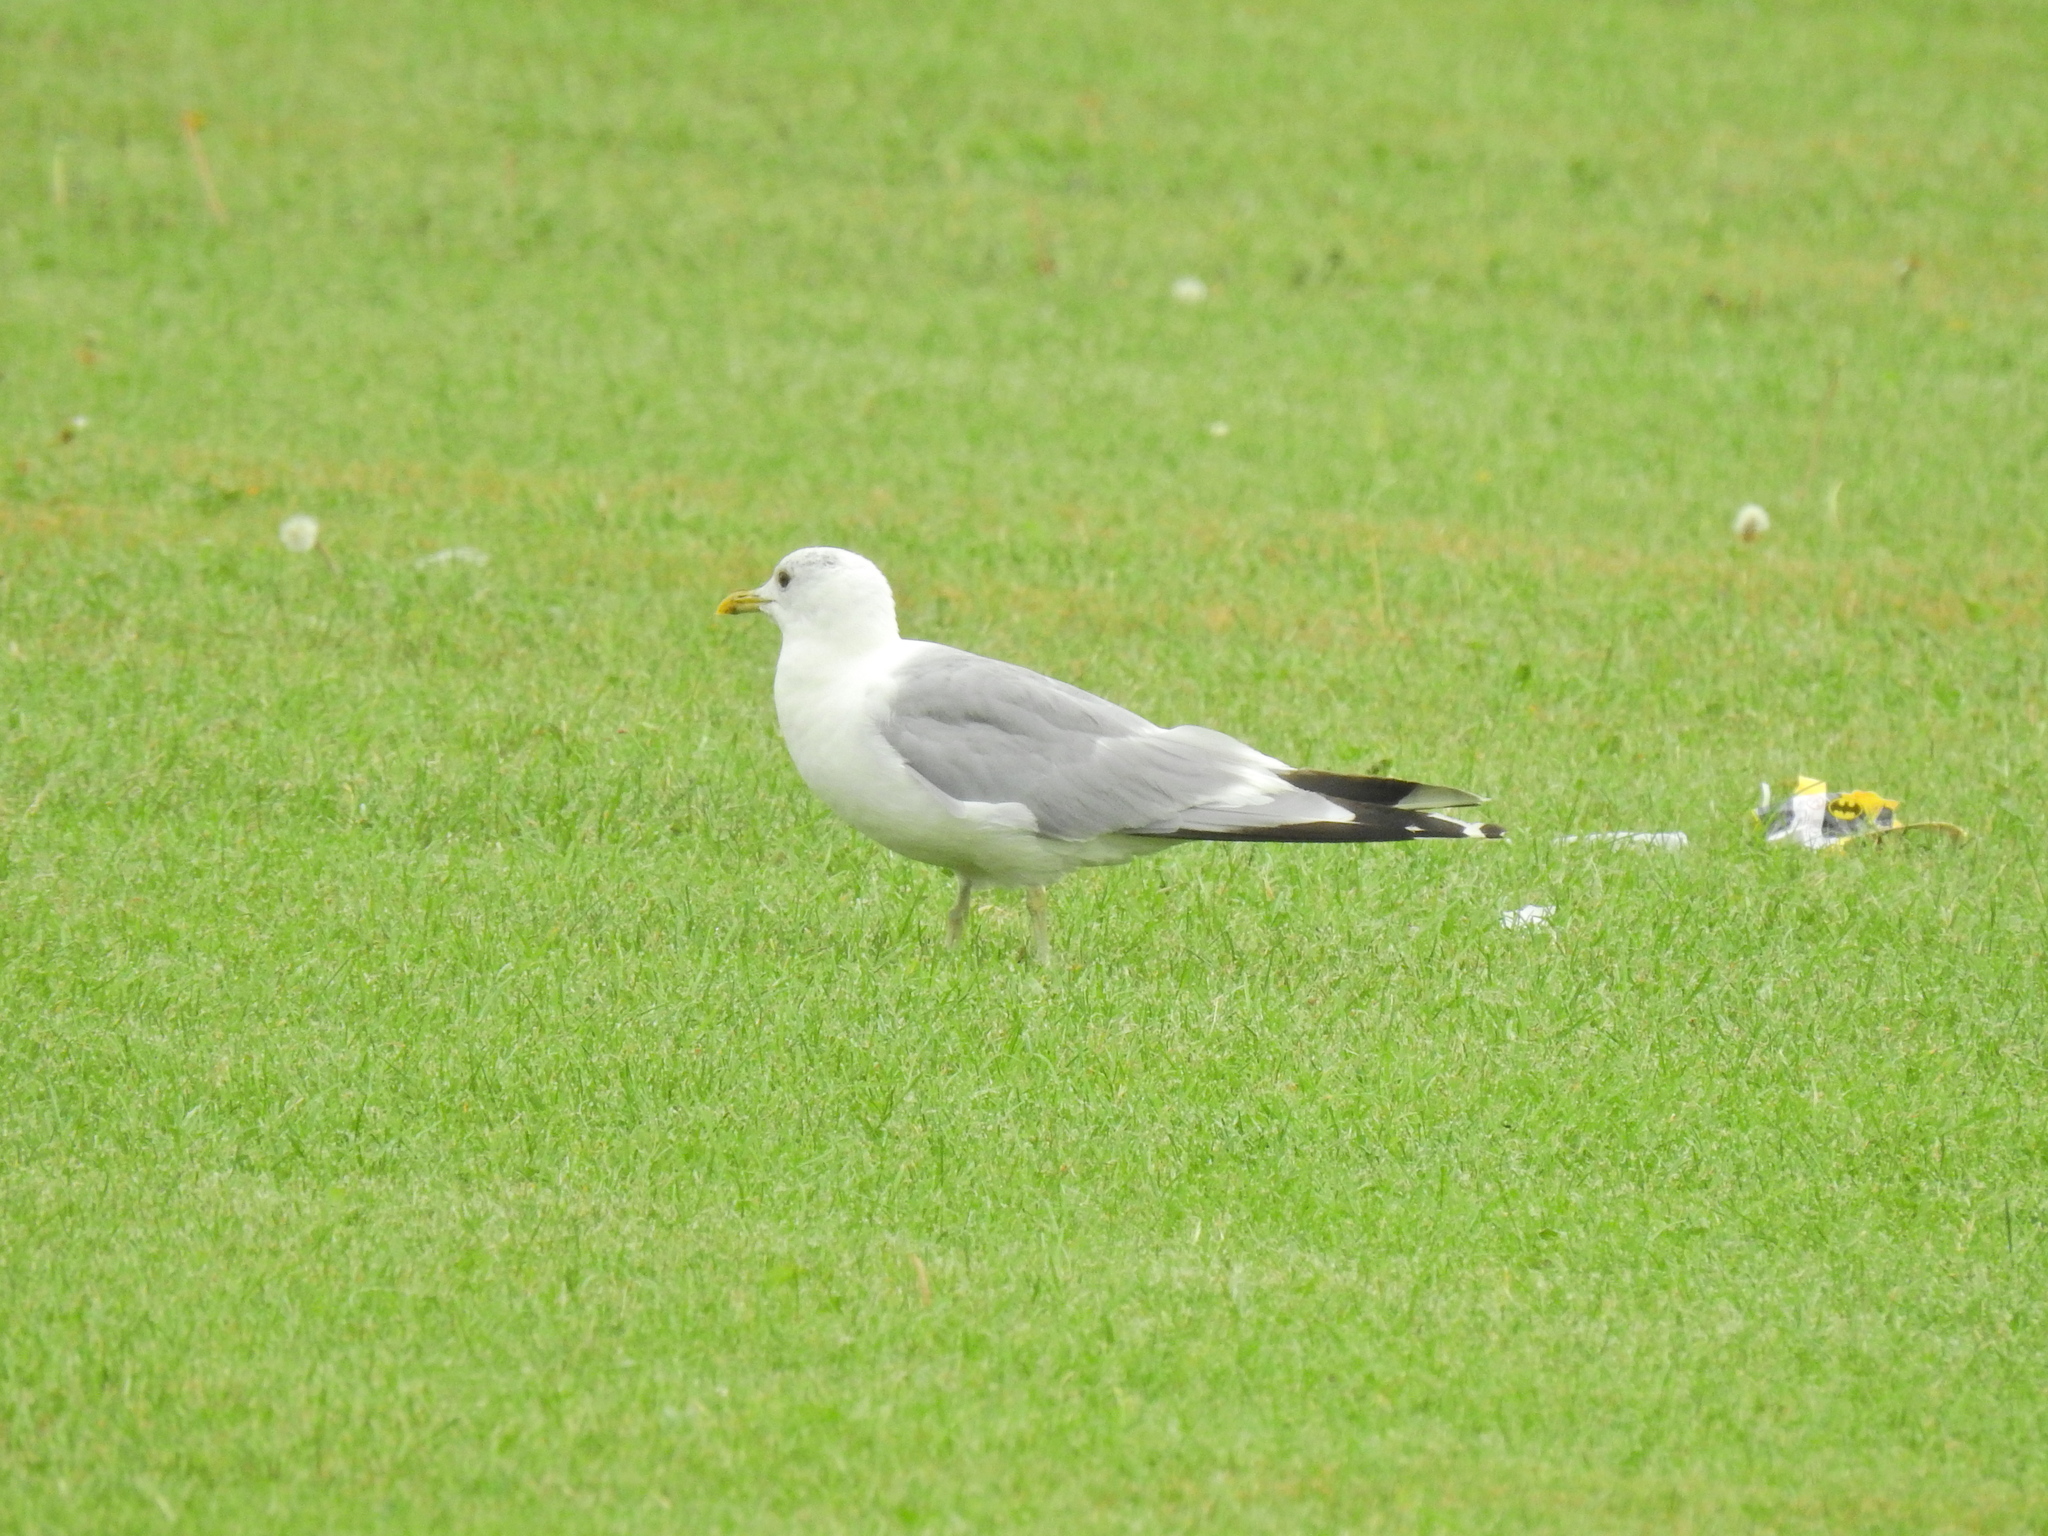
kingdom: Animalia
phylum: Chordata
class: Aves
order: Charadriiformes
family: Laridae
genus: Larus
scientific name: Larus canus
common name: Mew gull
